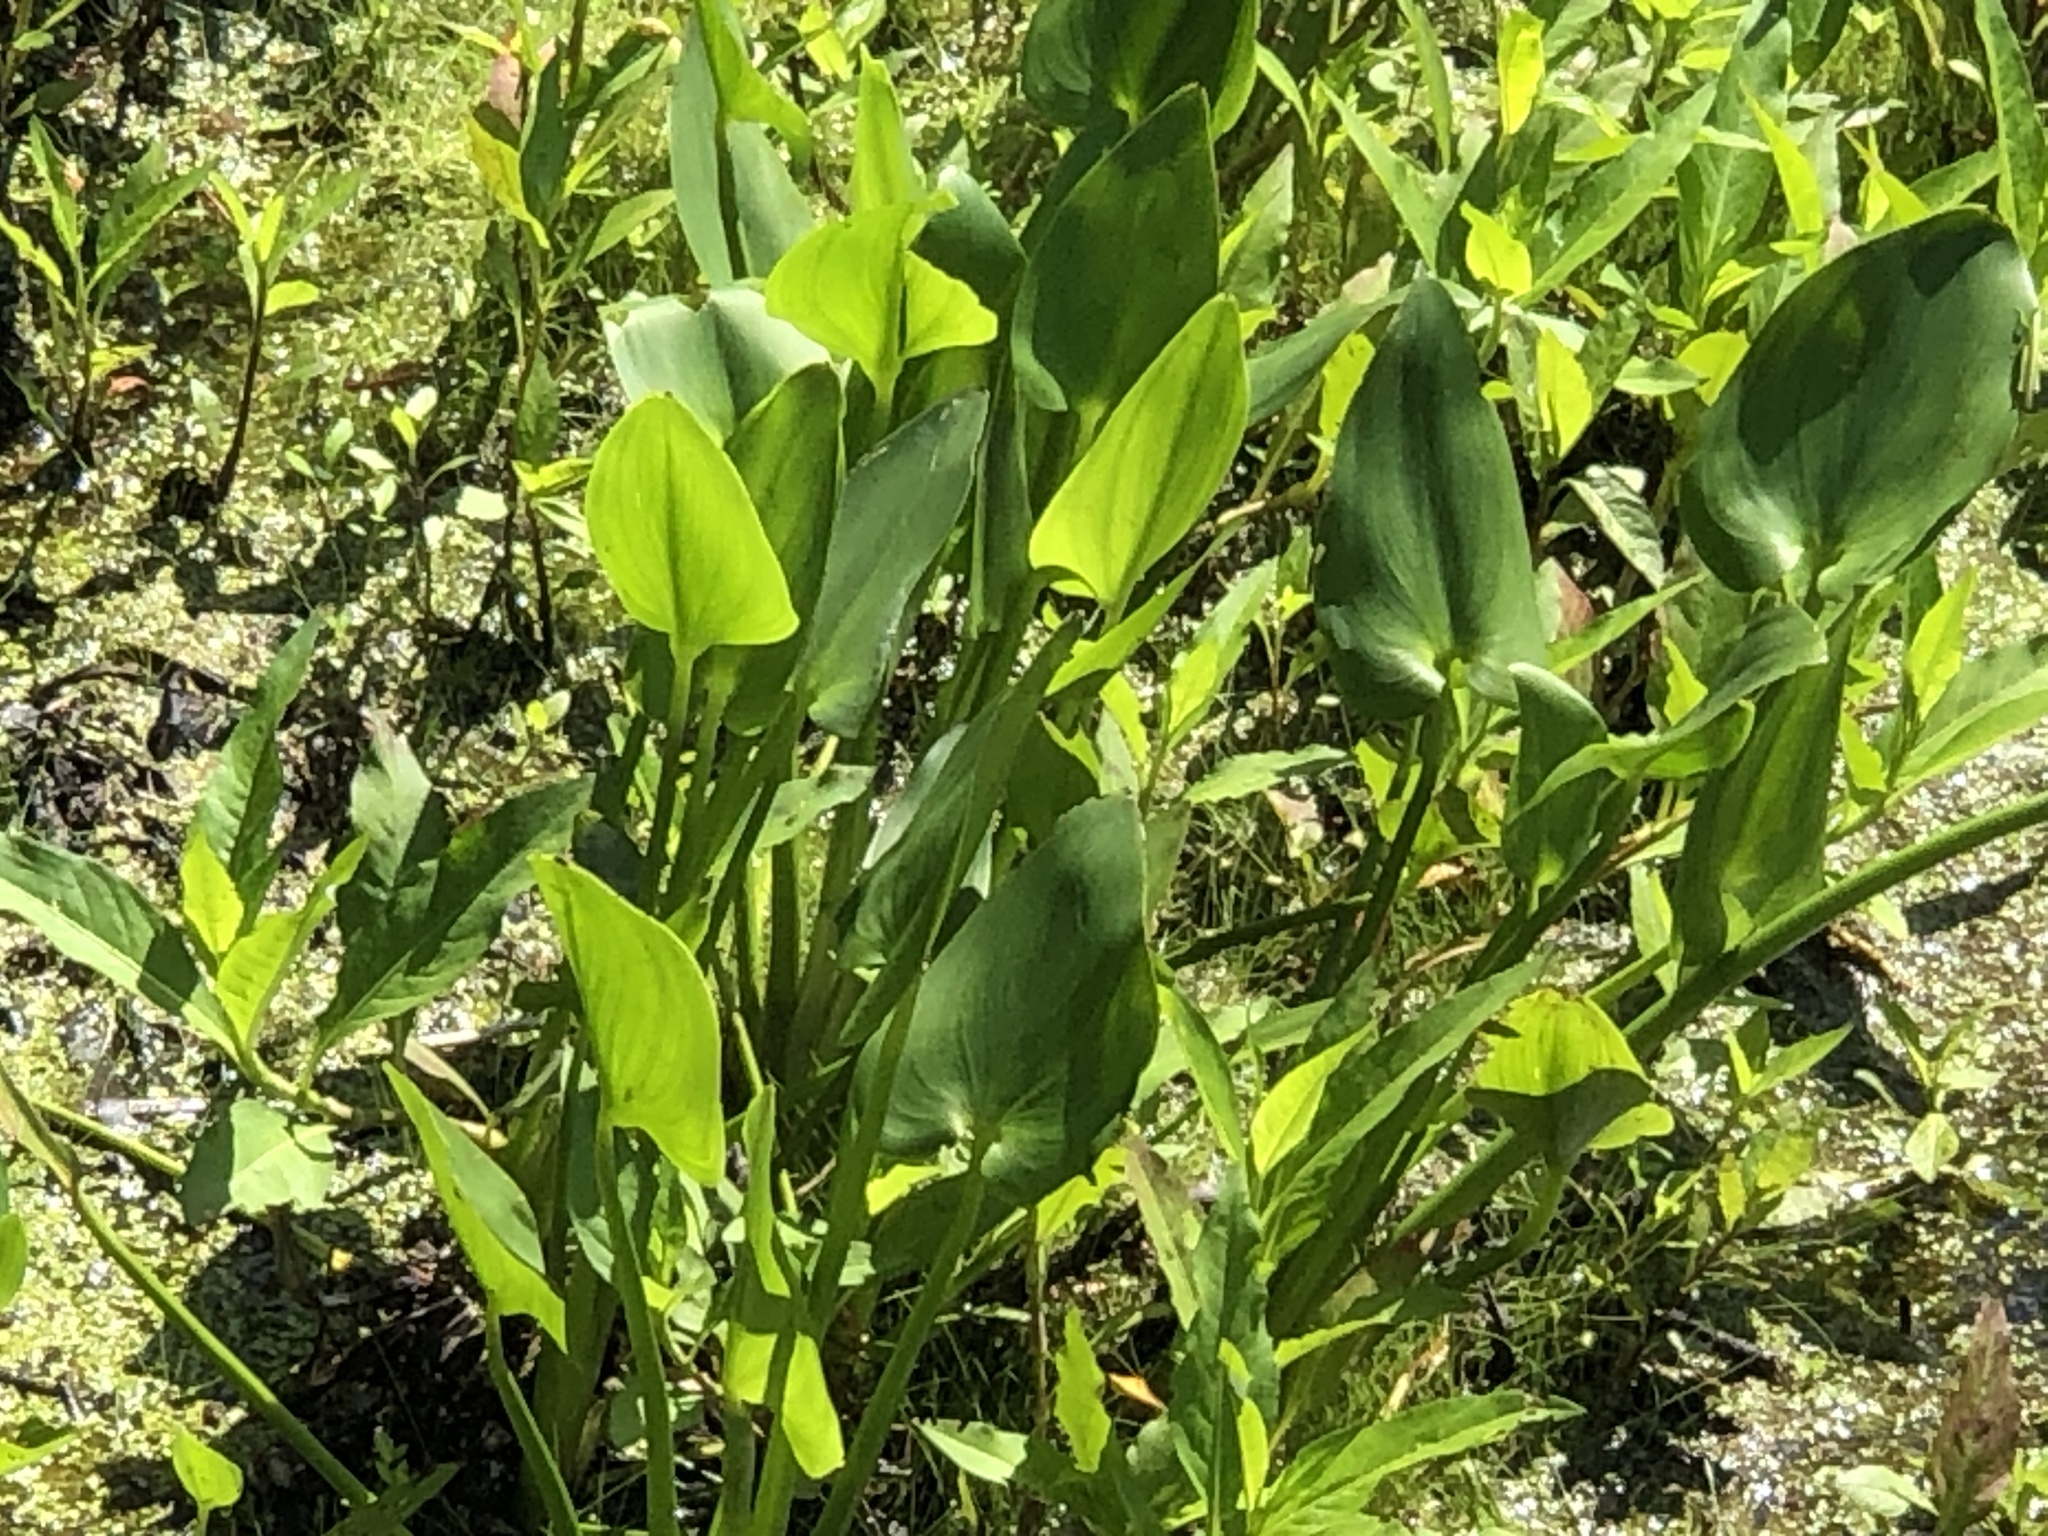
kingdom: Plantae
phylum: Tracheophyta
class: Liliopsida
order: Commelinales
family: Pontederiaceae
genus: Pontederia
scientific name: Pontederia cordata
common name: Pickerelweed
